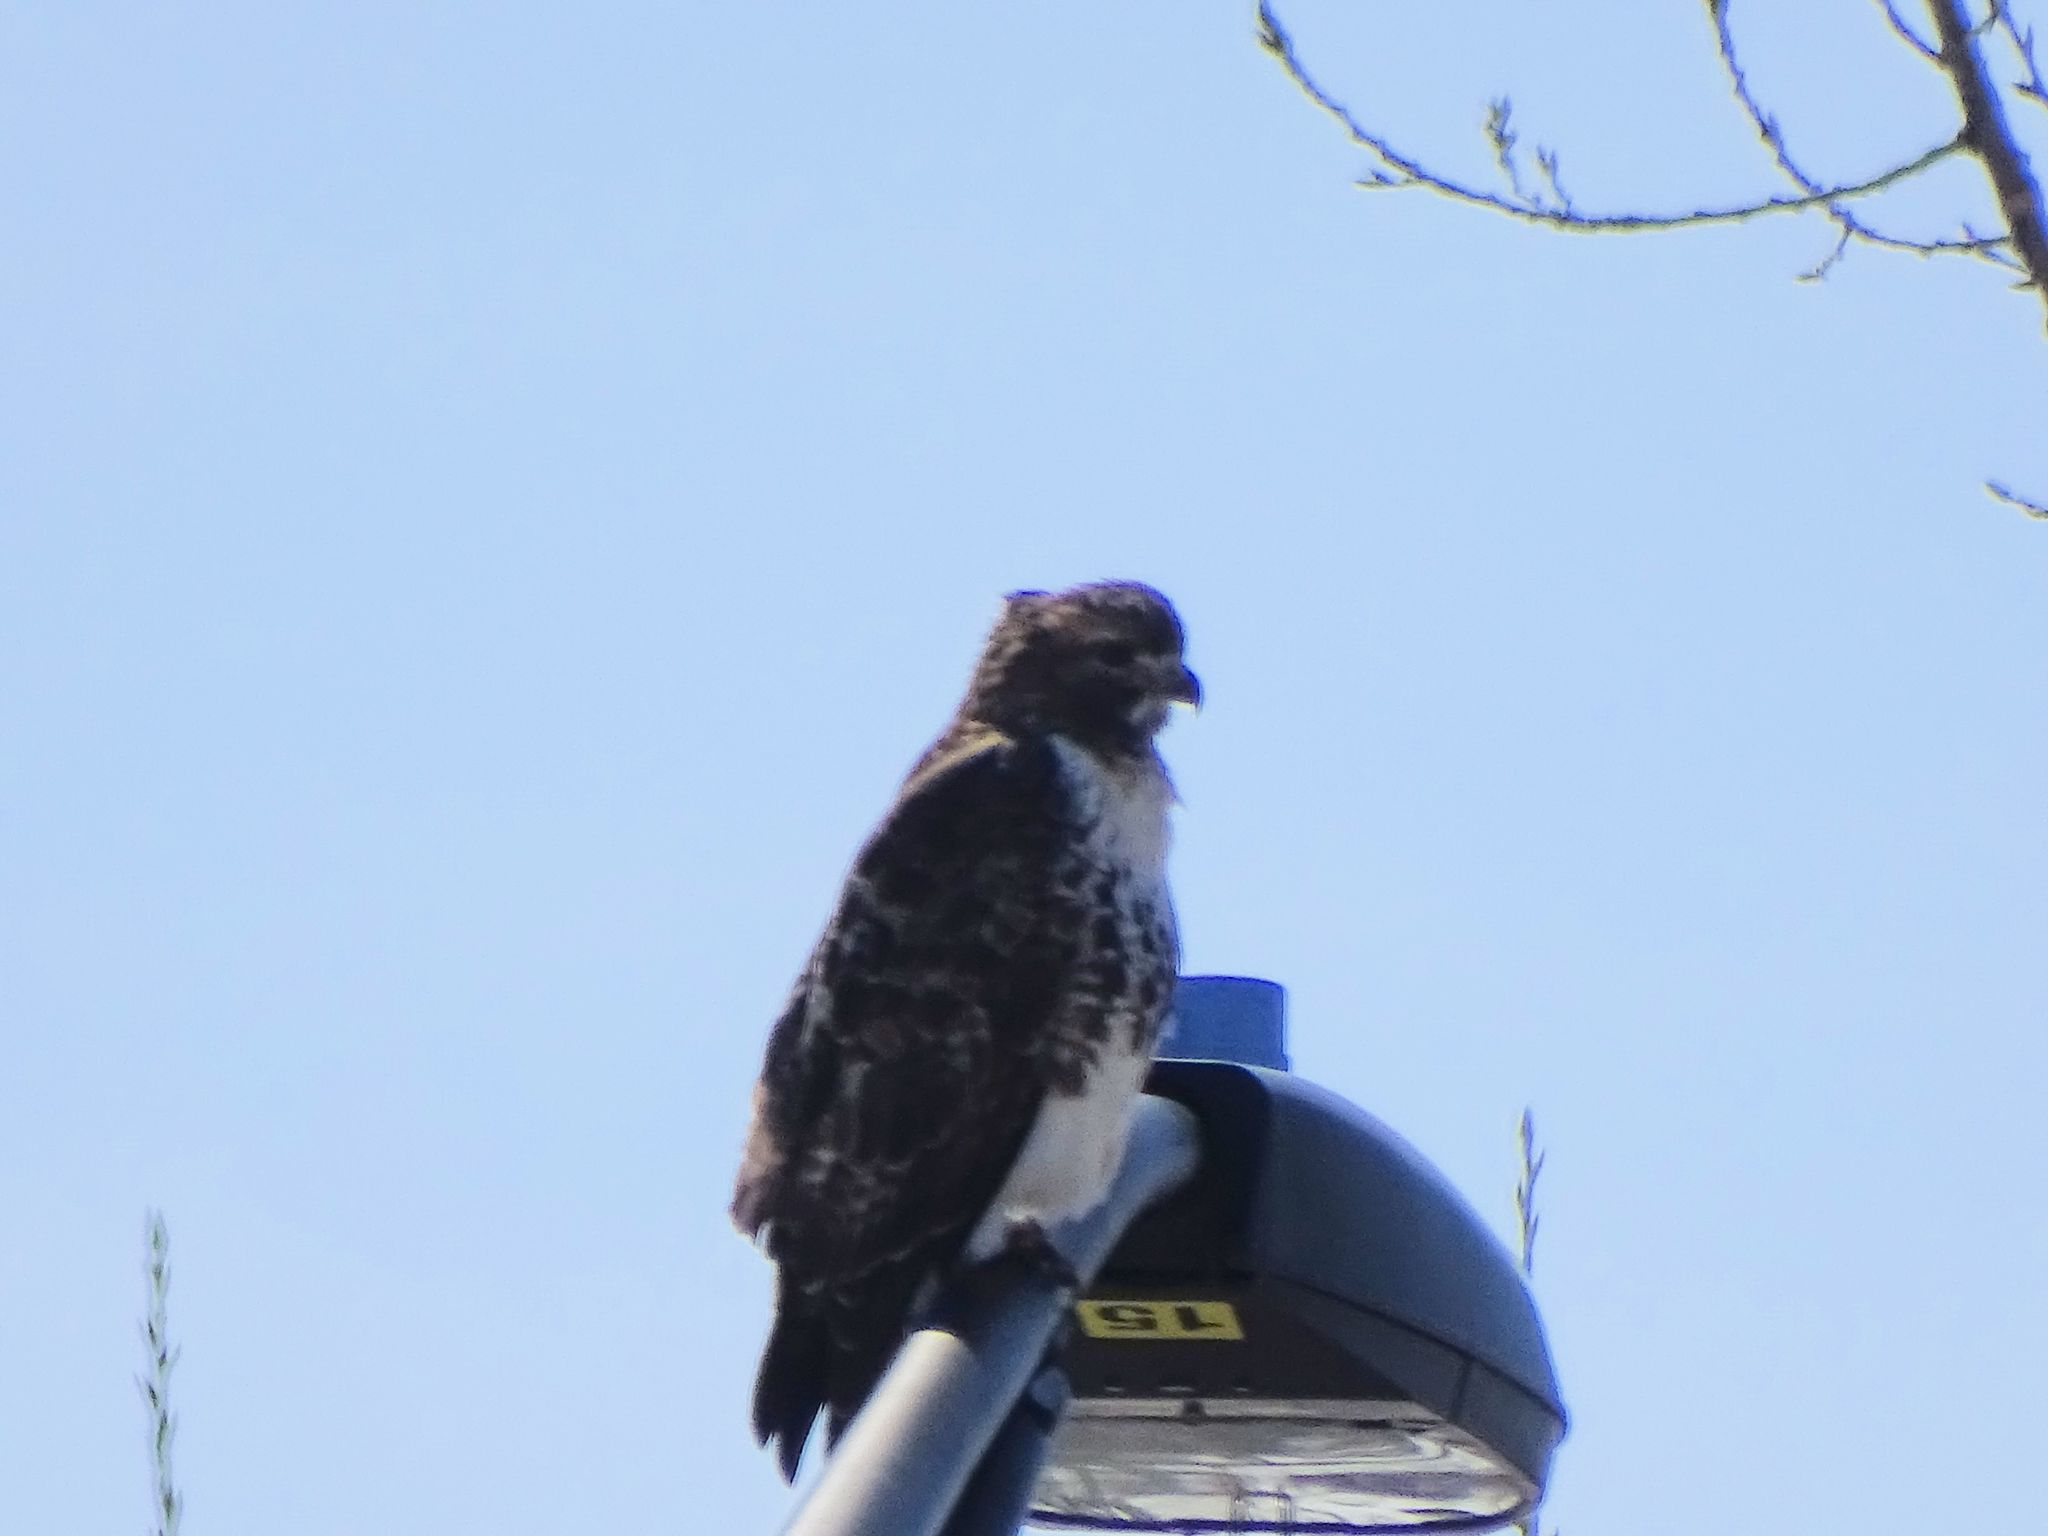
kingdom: Animalia
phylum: Chordata
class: Aves
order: Accipitriformes
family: Accipitridae
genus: Buteo
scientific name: Buteo jamaicensis
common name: Red-tailed hawk
